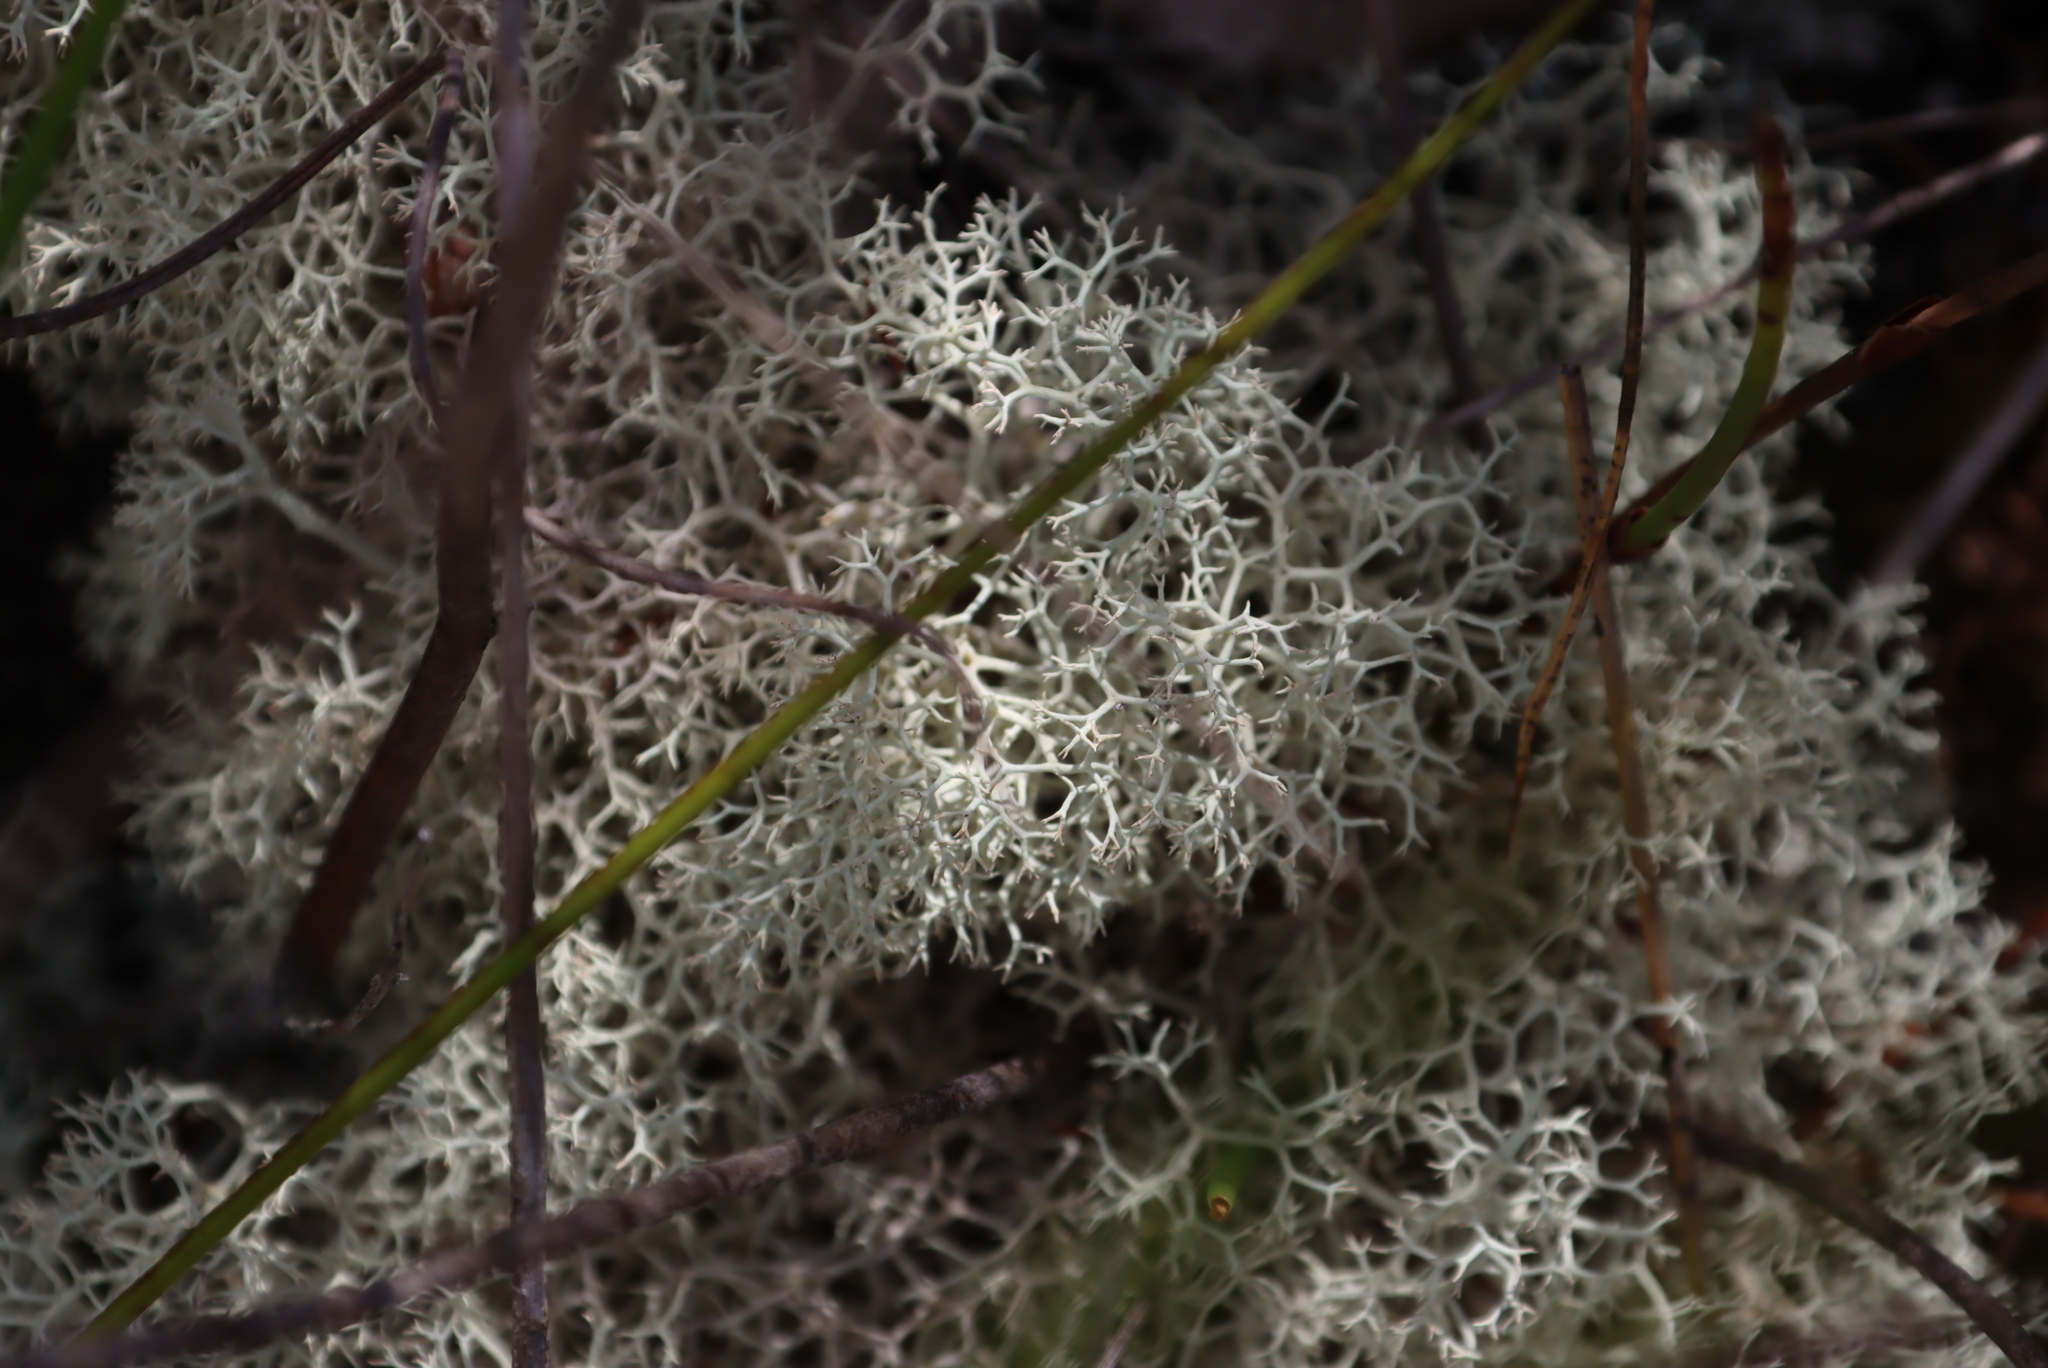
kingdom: Fungi
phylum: Ascomycota
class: Lecanoromycetes
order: Lecanorales
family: Cladoniaceae
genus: Cladonia
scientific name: Cladonia confusa
